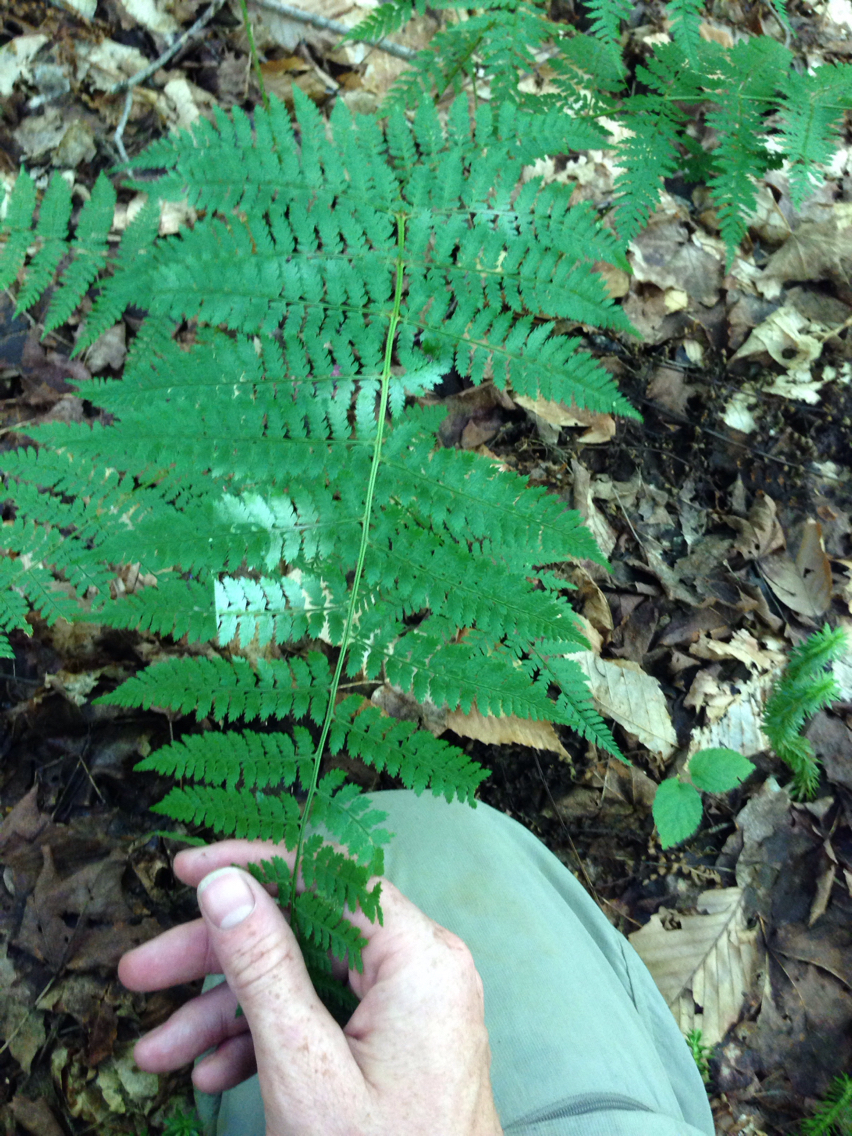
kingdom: Plantae
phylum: Tracheophyta
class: Polypodiopsida
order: Polypodiales
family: Athyriaceae
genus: Athyrium
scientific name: Athyrium angustum
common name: Northern lady fern
